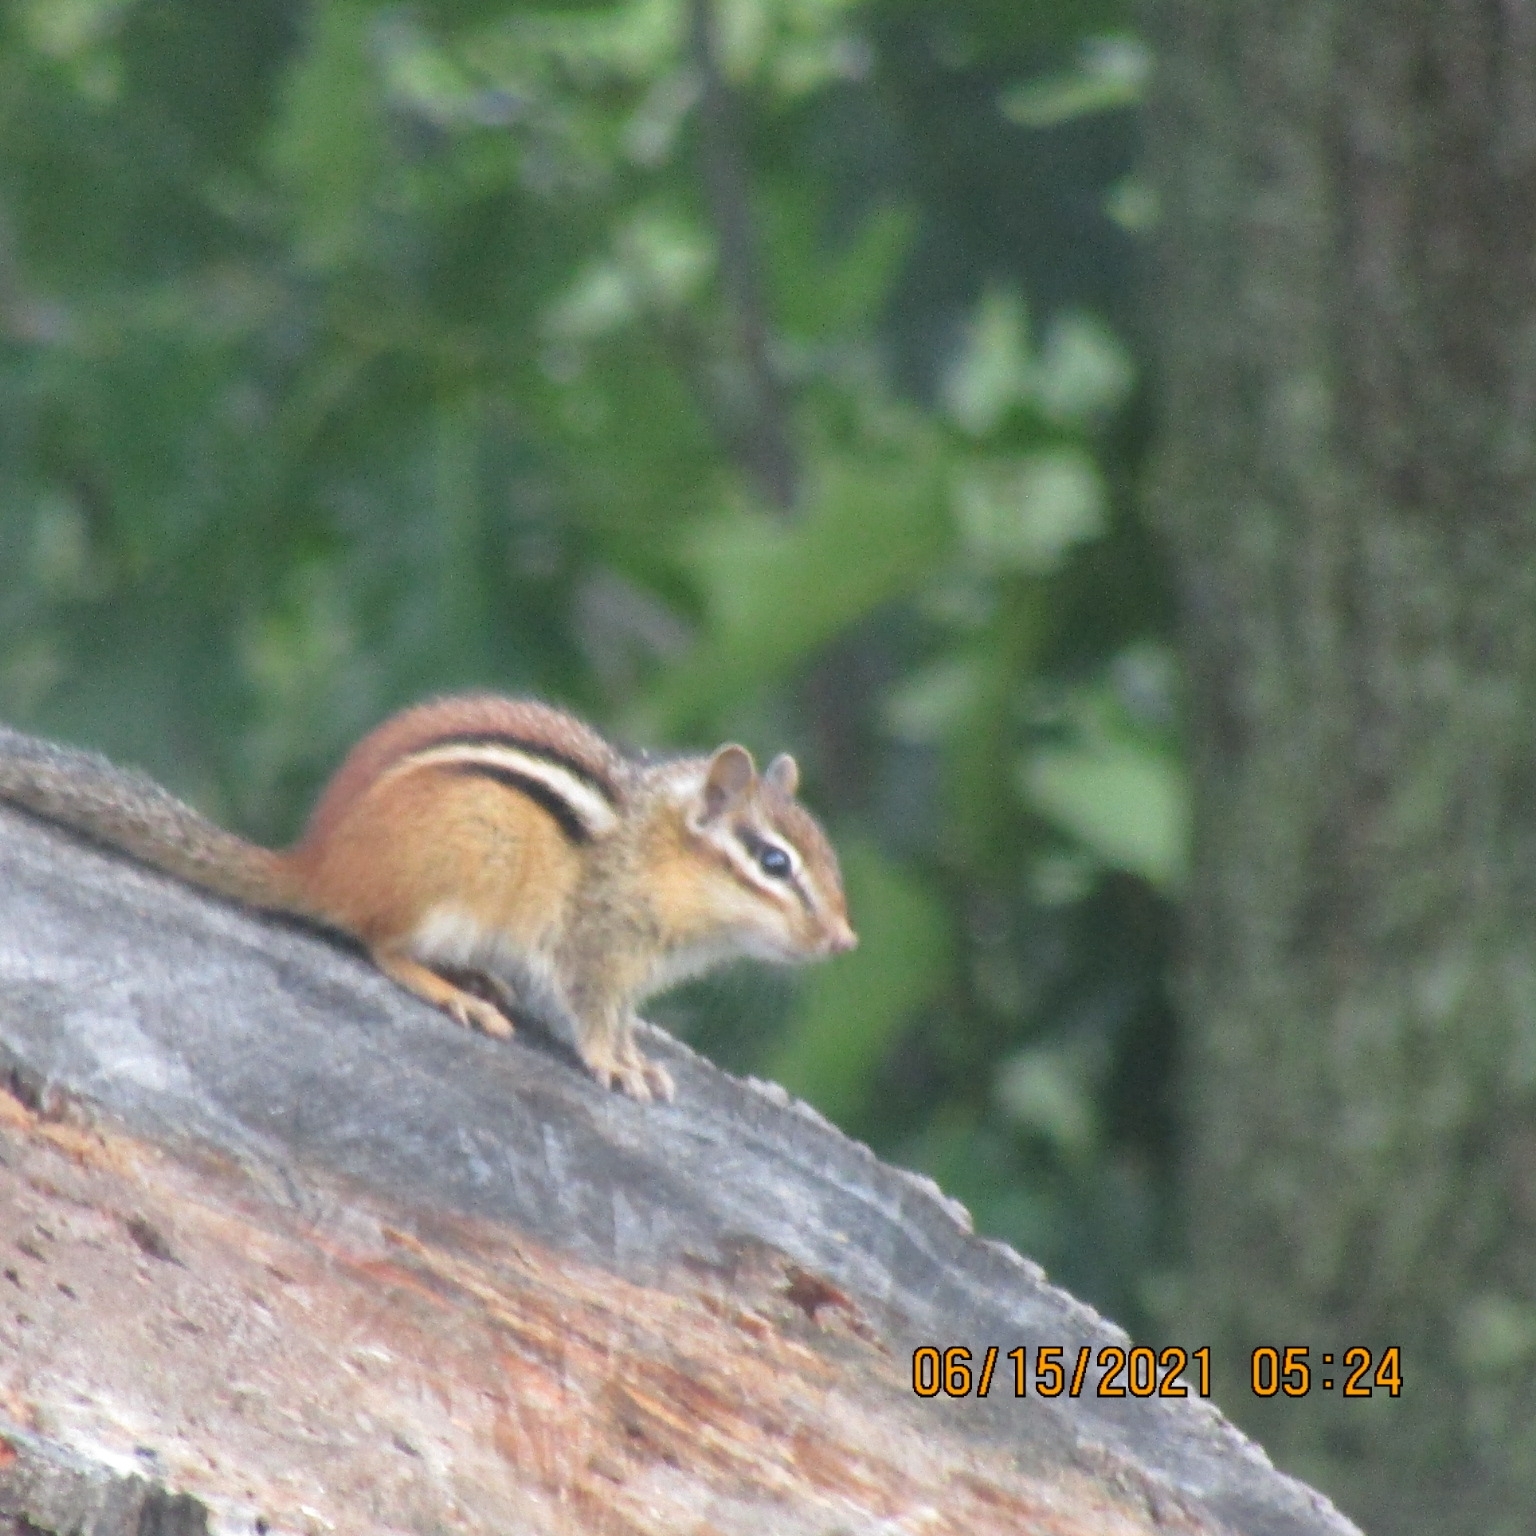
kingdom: Animalia
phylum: Chordata
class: Mammalia
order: Rodentia
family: Sciuridae
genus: Tamias
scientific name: Tamias striatus
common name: Eastern chipmunk
